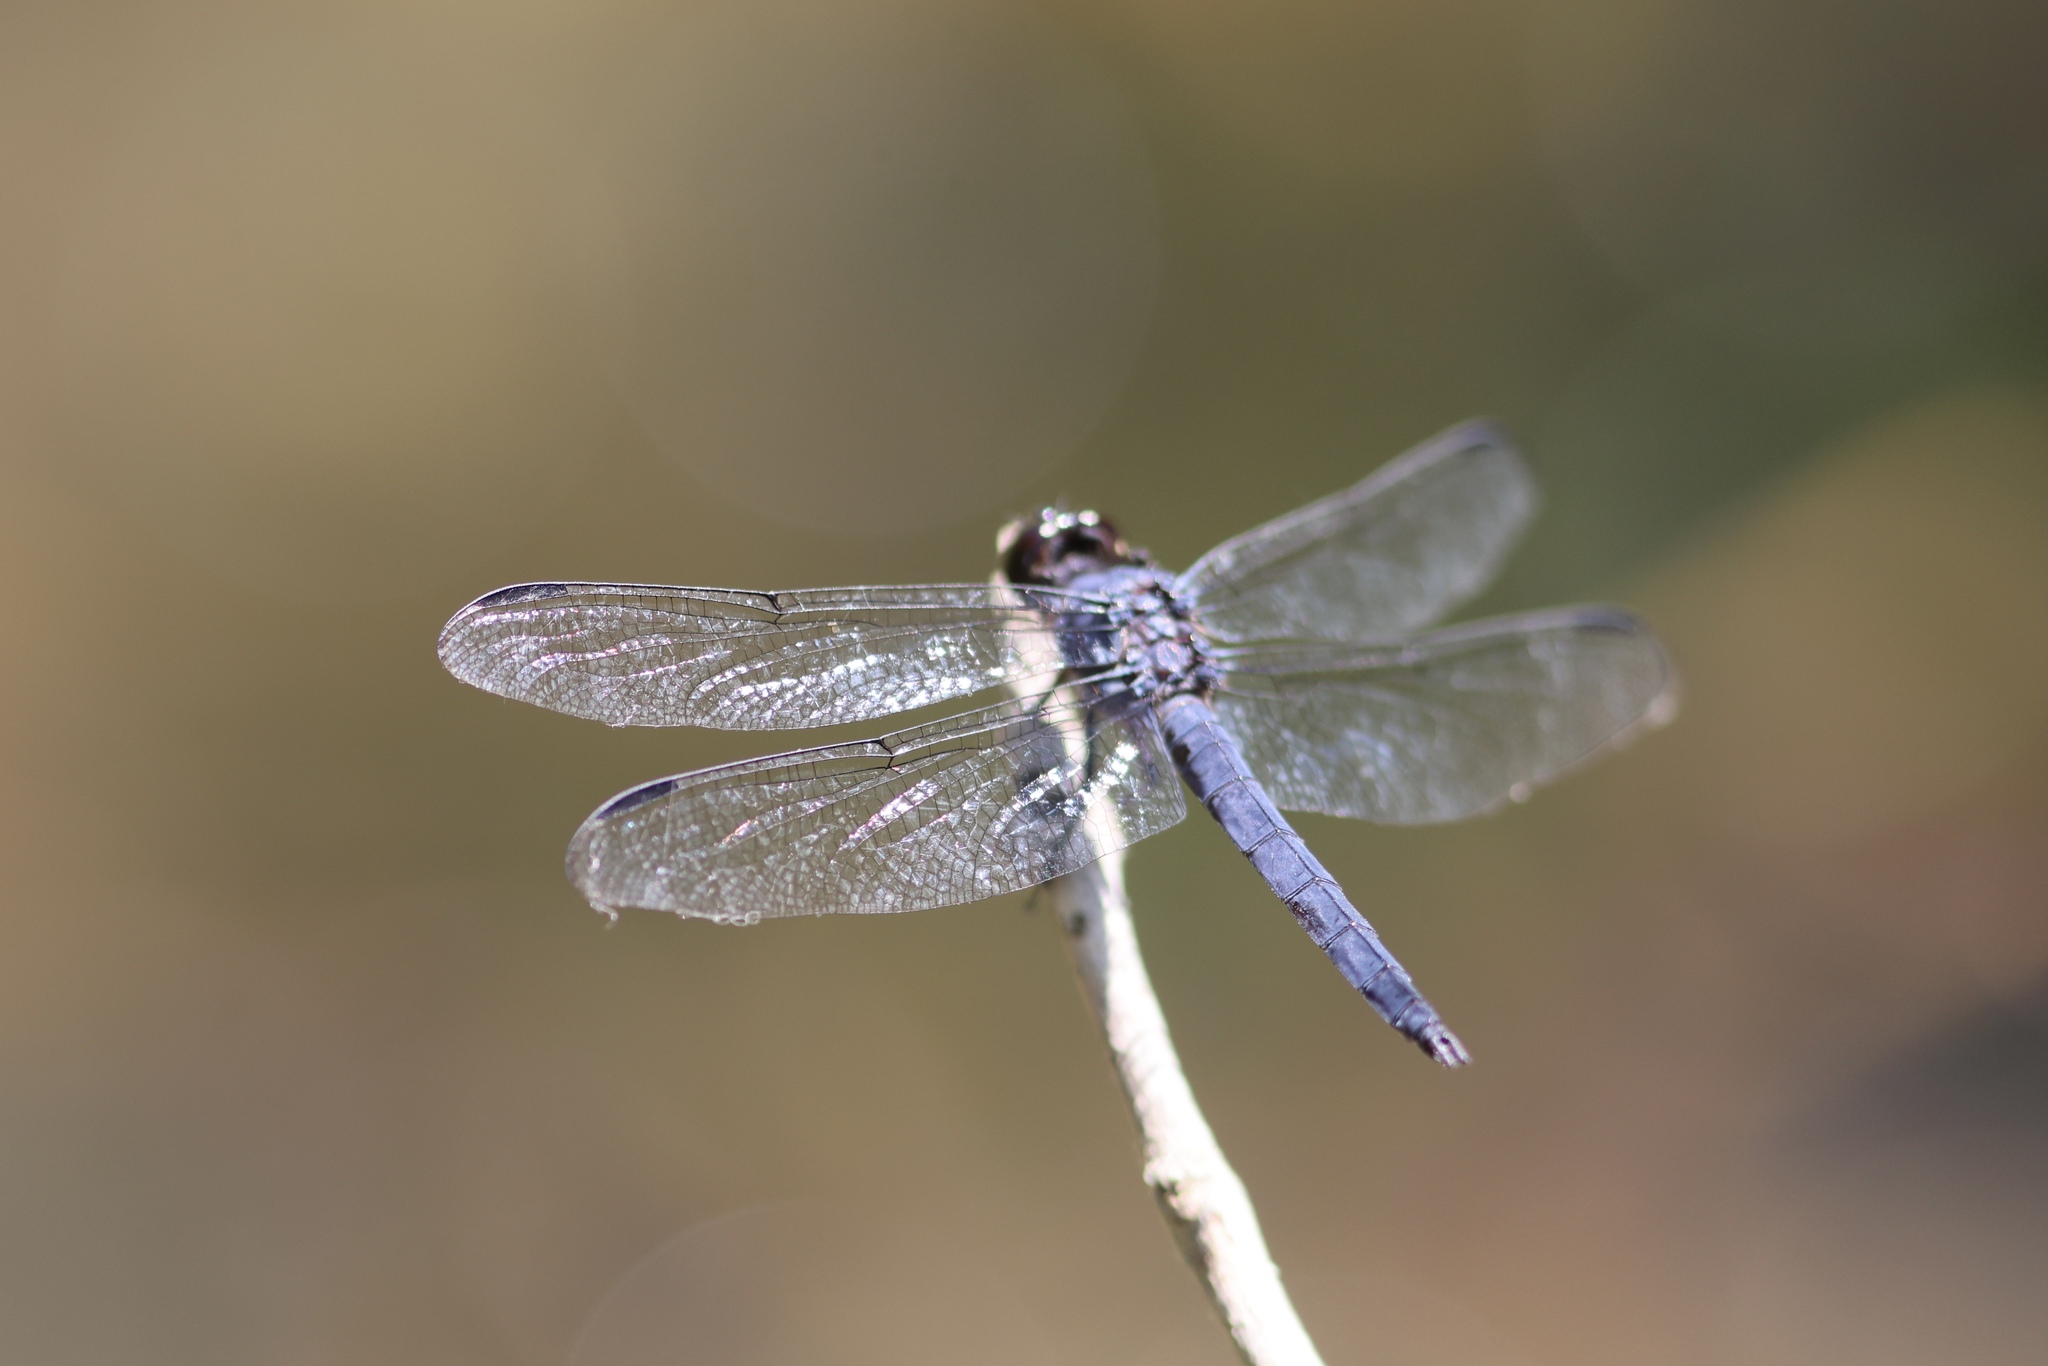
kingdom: Animalia
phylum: Arthropoda
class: Insecta
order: Odonata
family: Libellulidae
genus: Libellula
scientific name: Libellula incesta
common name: Slaty skimmer
